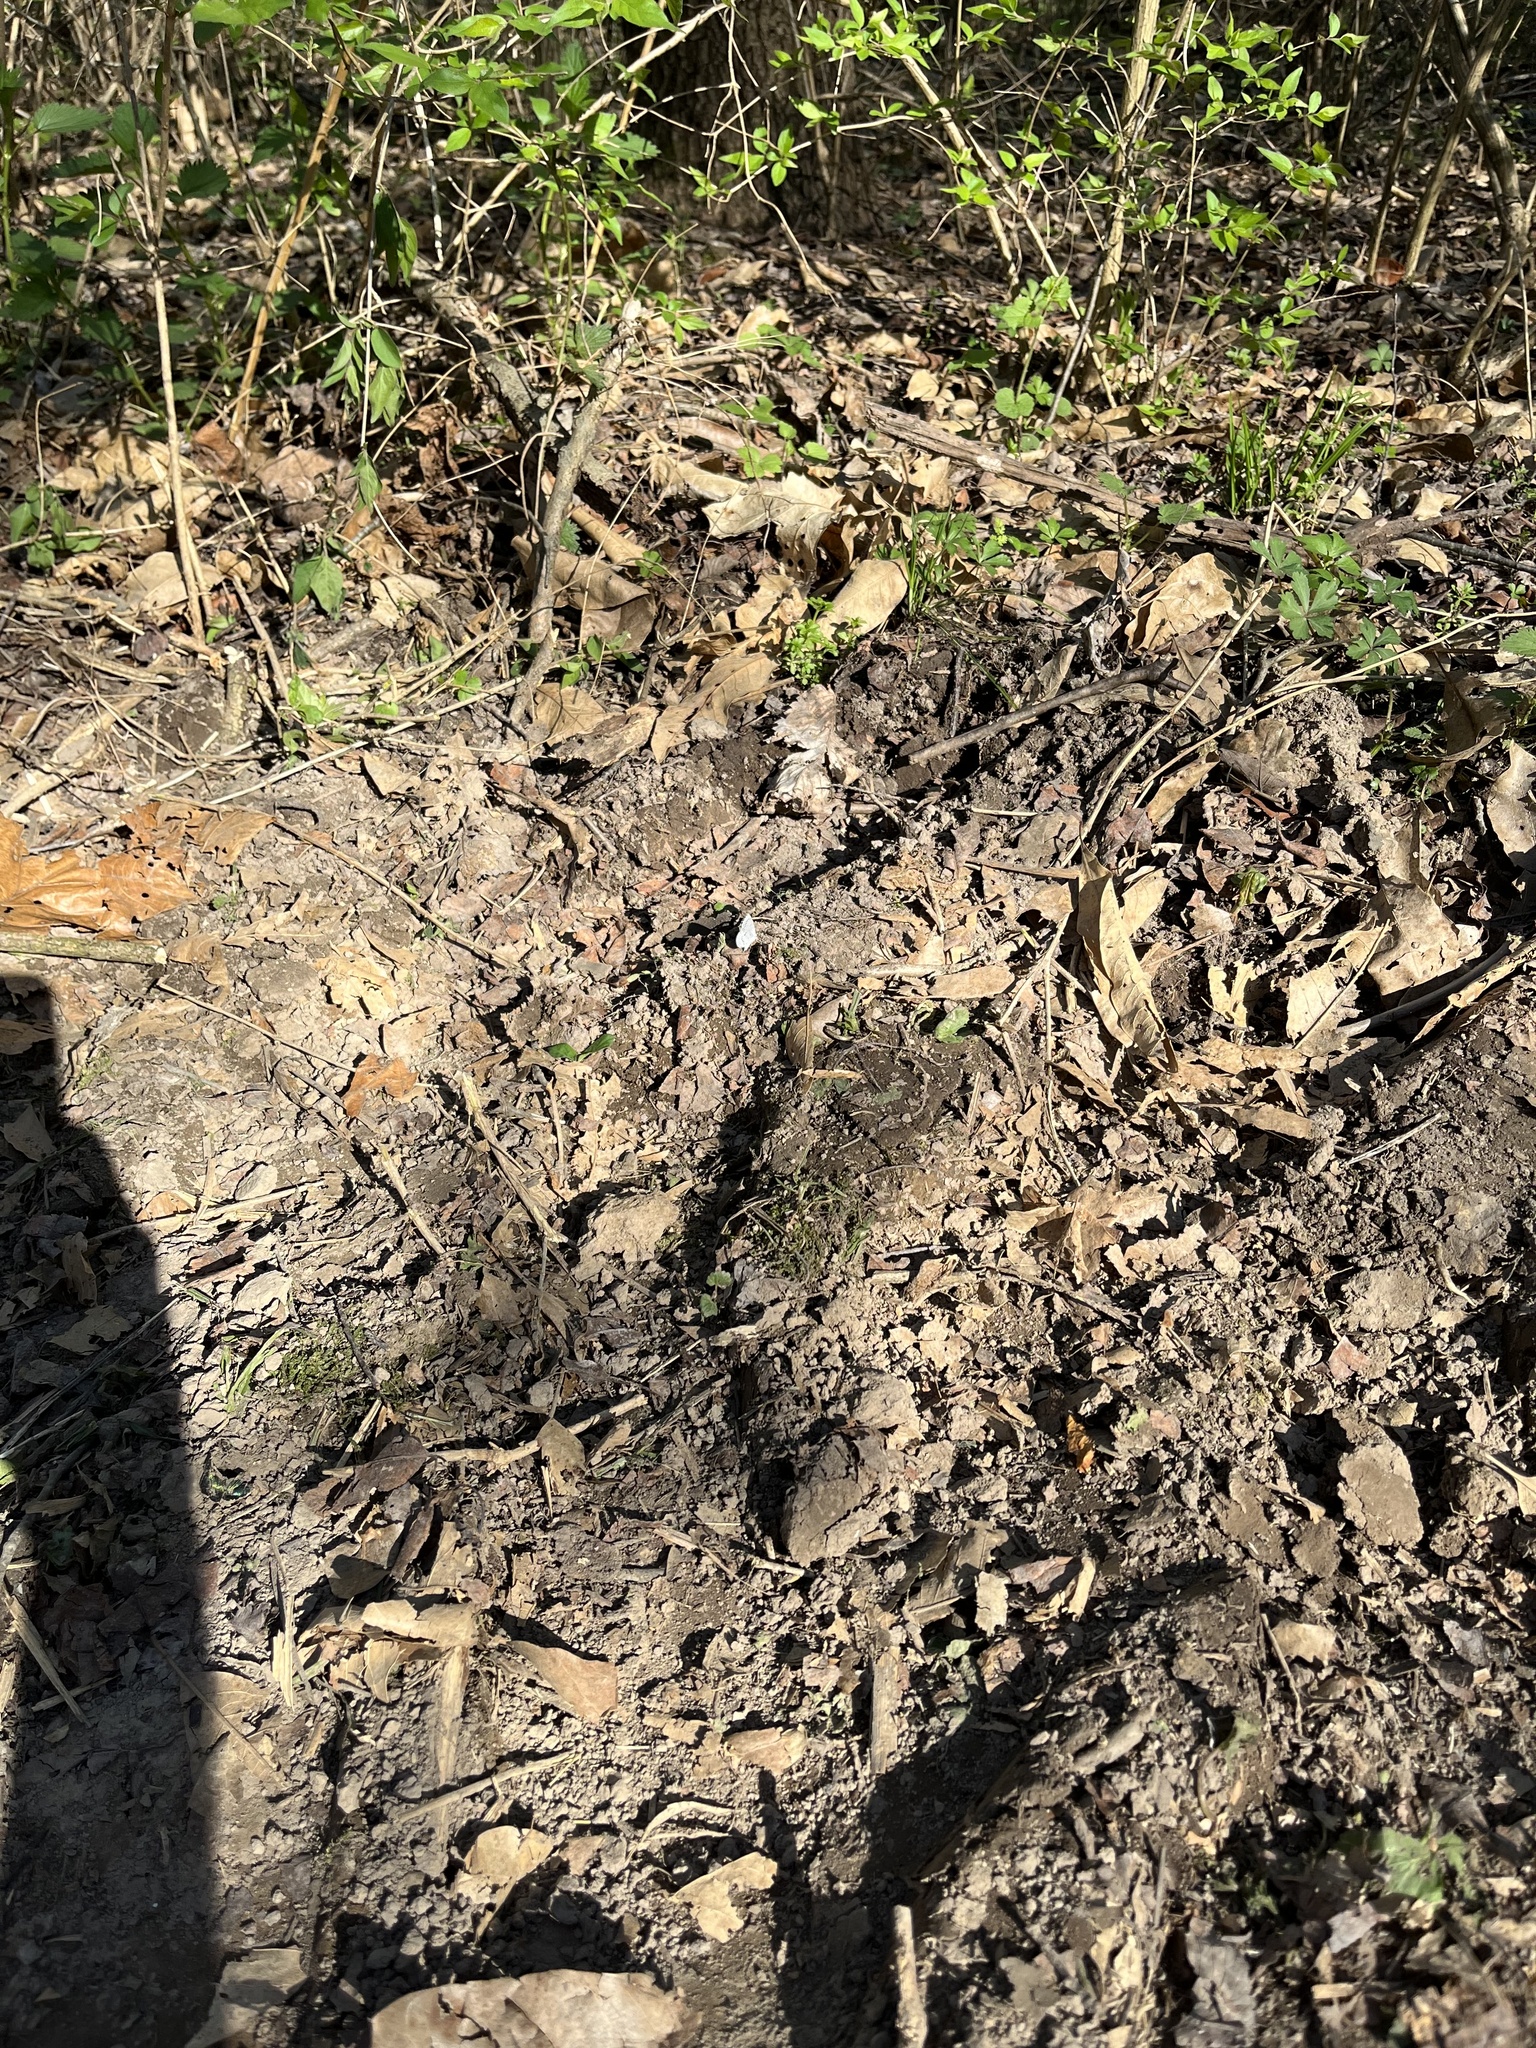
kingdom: Animalia
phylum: Arthropoda
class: Insecta
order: Lepidoptera
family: Lycaenidae
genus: Celastrina
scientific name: Celastrina ladon
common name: Spring azure
